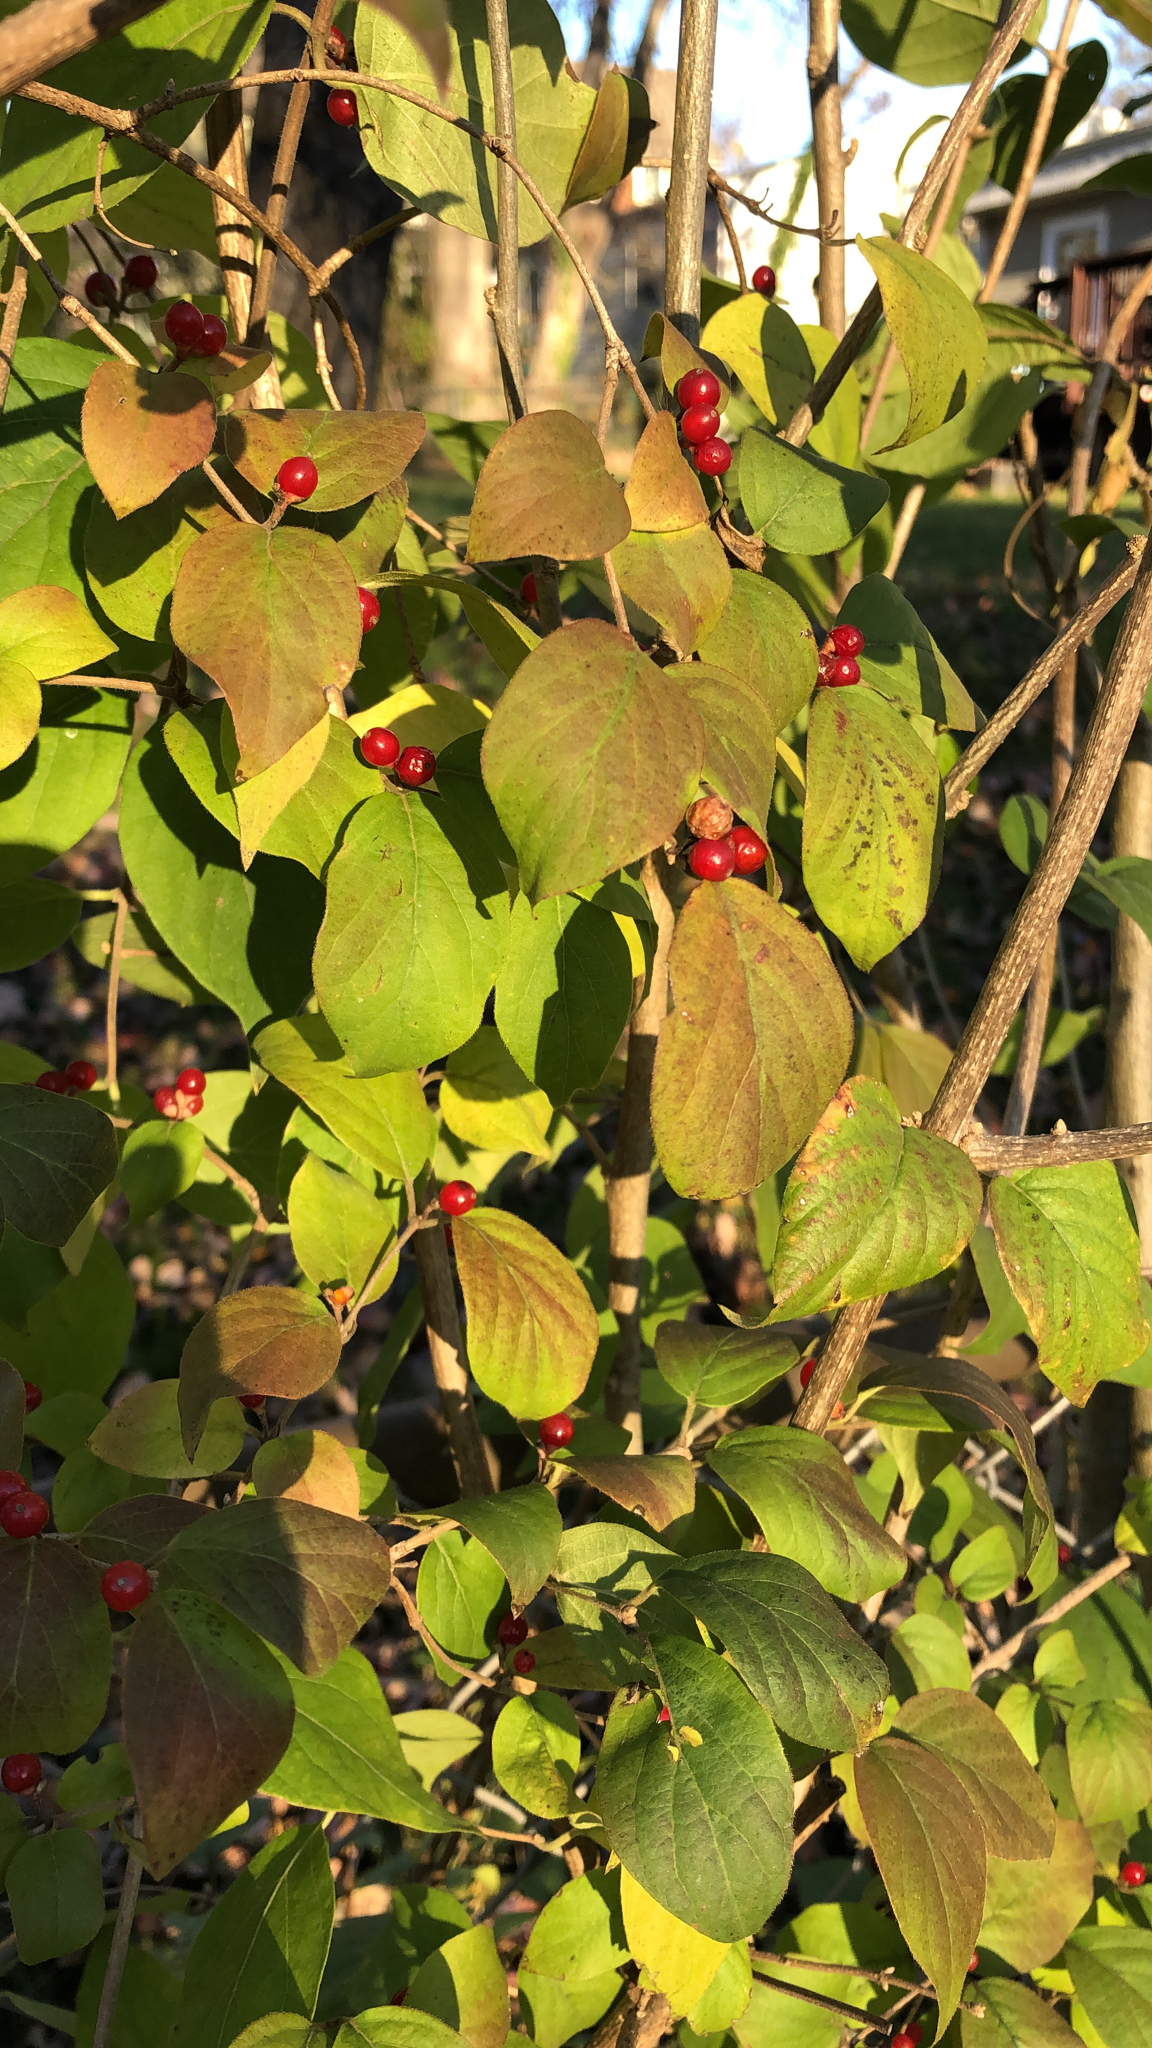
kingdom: Plantae
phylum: Tracheophyta
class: Magnoliopsida
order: Dipsacales
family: Caprifoliaceae
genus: Lonicera
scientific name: Lonicera maackii
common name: Amur honeysuckle
